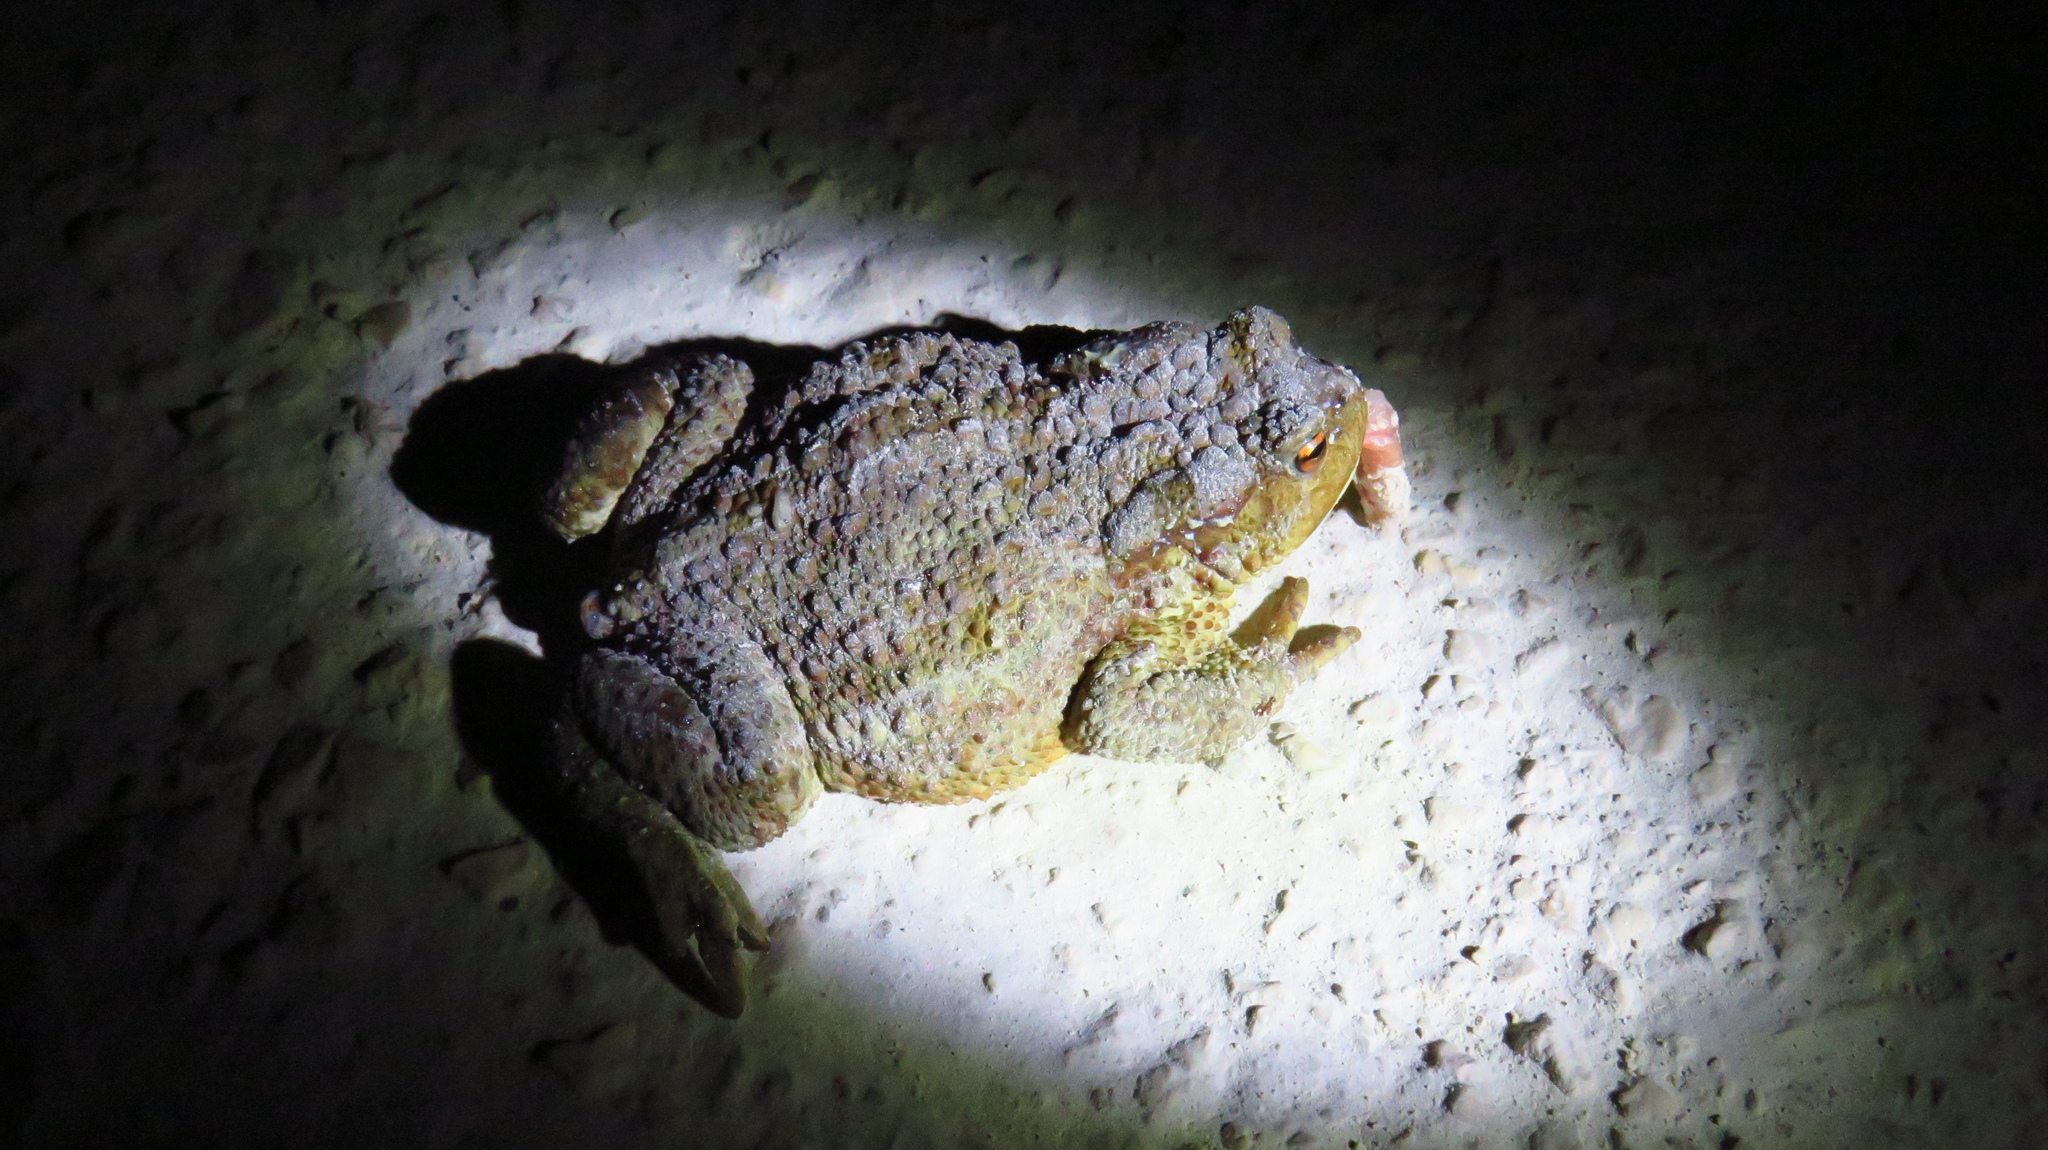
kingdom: Animalia
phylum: Chordata
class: Amphibia
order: Anura
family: Bufonidae
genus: Bufo
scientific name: Bufo bufo
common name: Common toad
